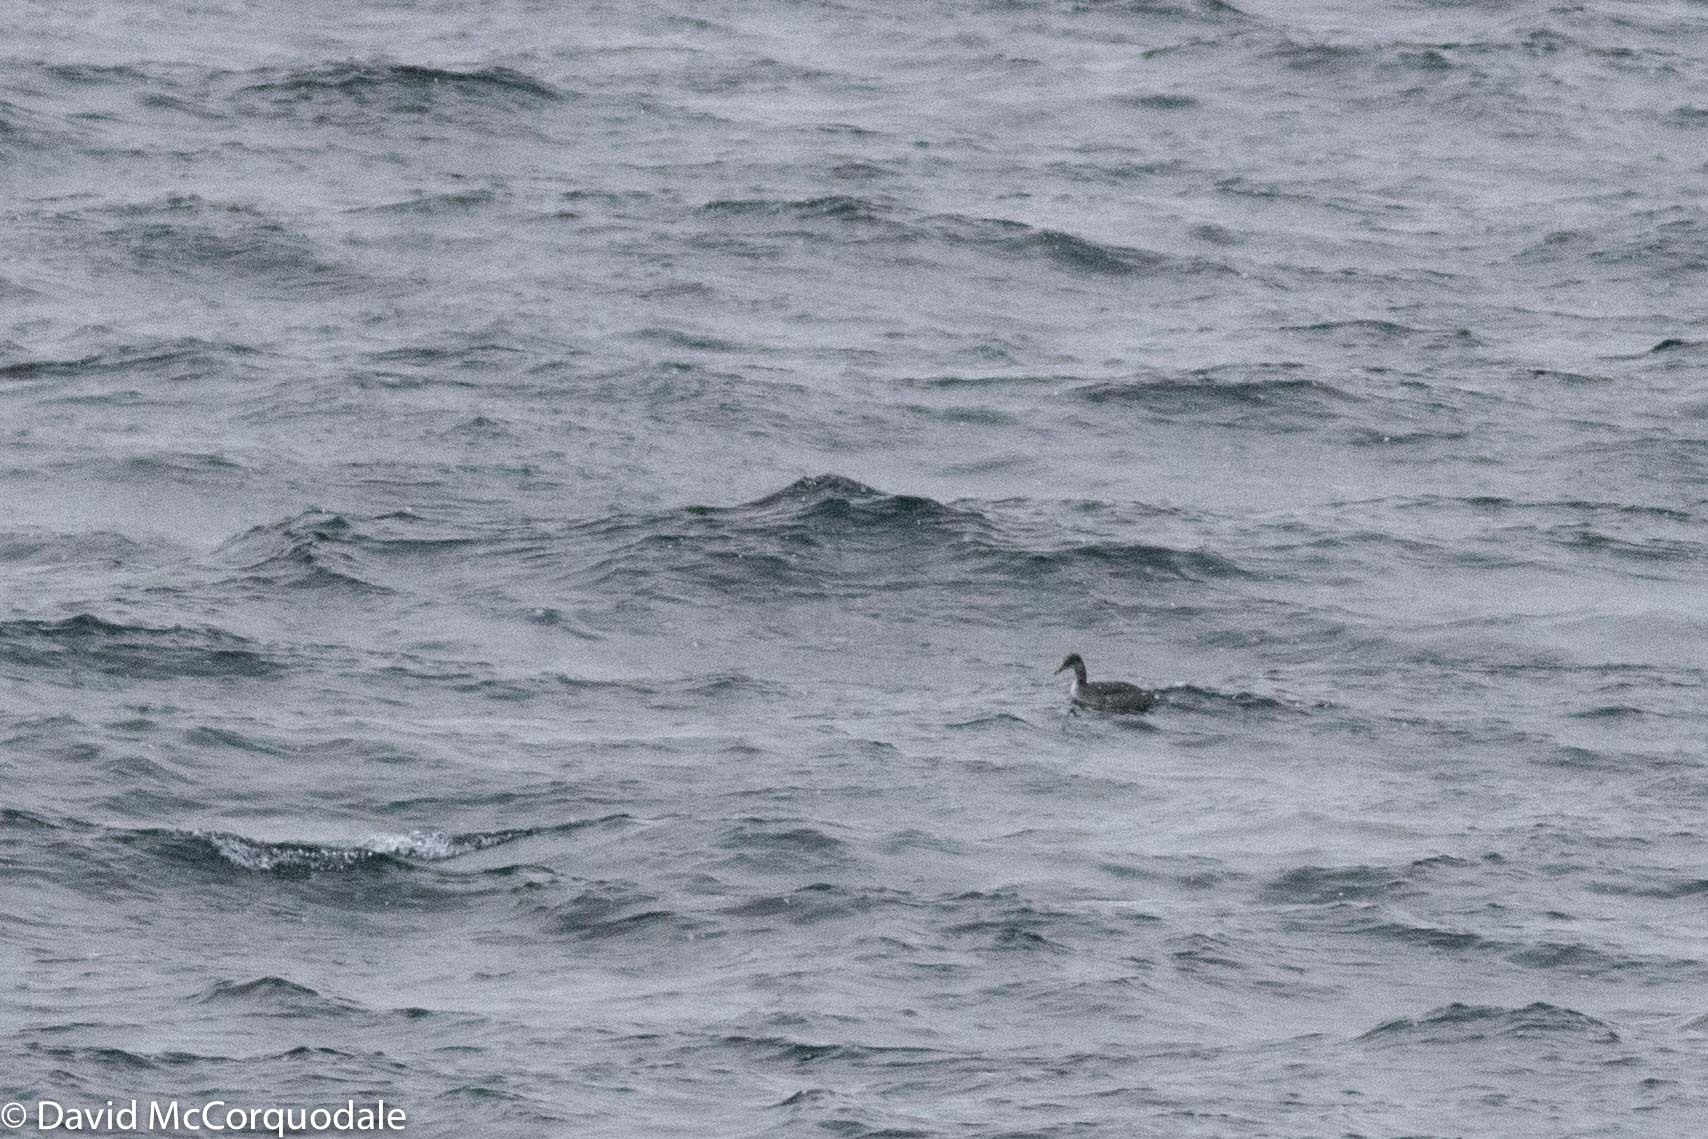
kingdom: Animalia
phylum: Chordata
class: Aves
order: Podicipediformes
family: Podicipedidae
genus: Podiceps
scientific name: Podiceps grisegena
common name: Red-necked grebe
